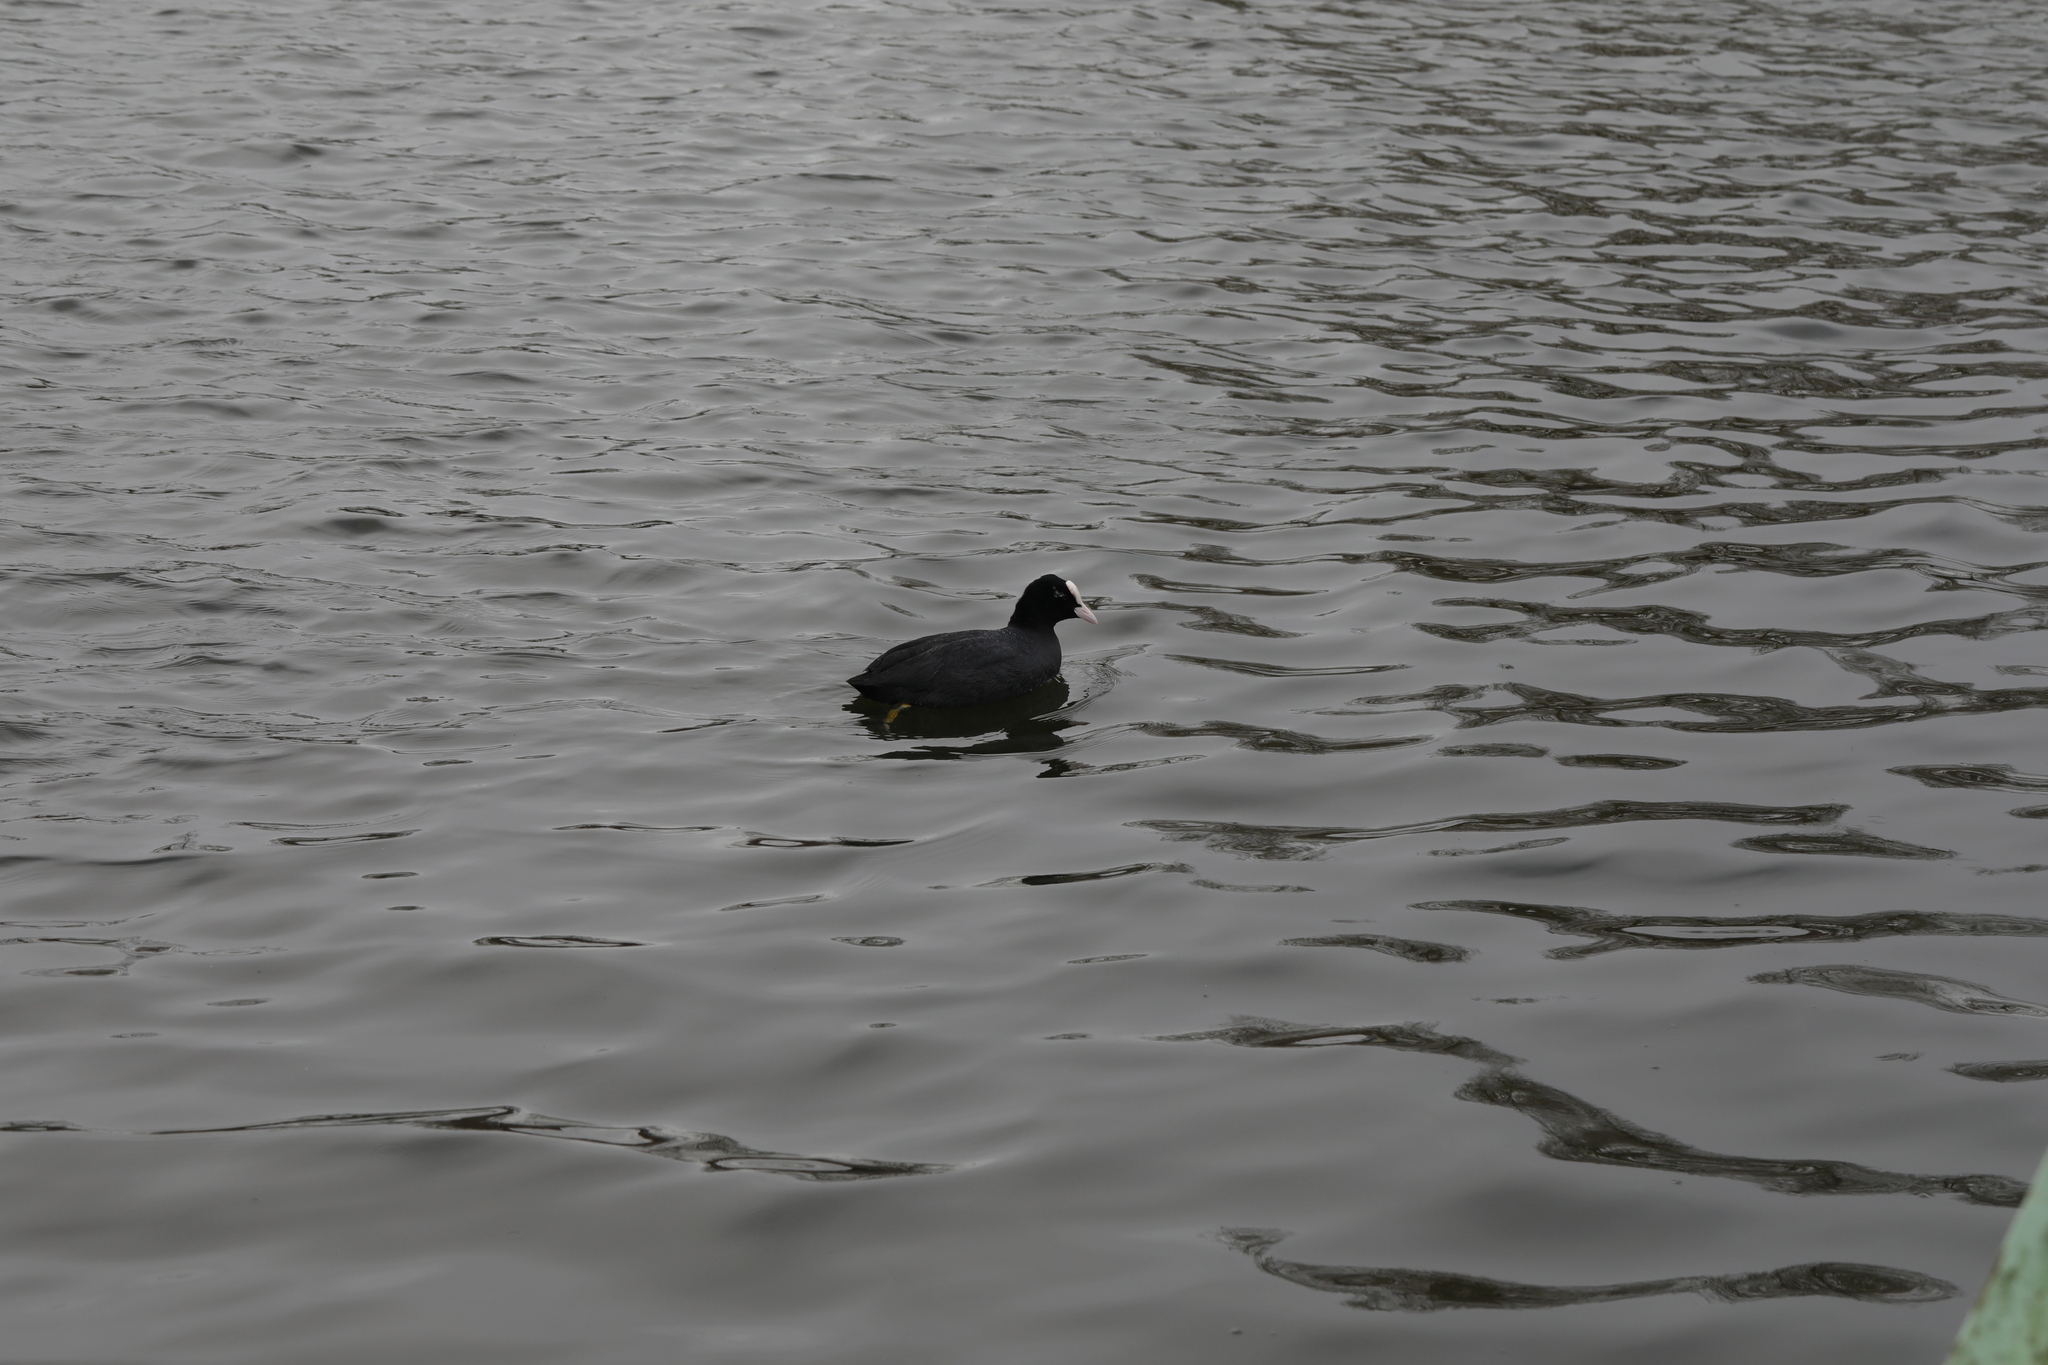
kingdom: Animalia
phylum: Chordata
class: Aves
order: Gruiformes
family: Rallidae
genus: Fulica
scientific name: Fulica atra
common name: Eurasian coot
